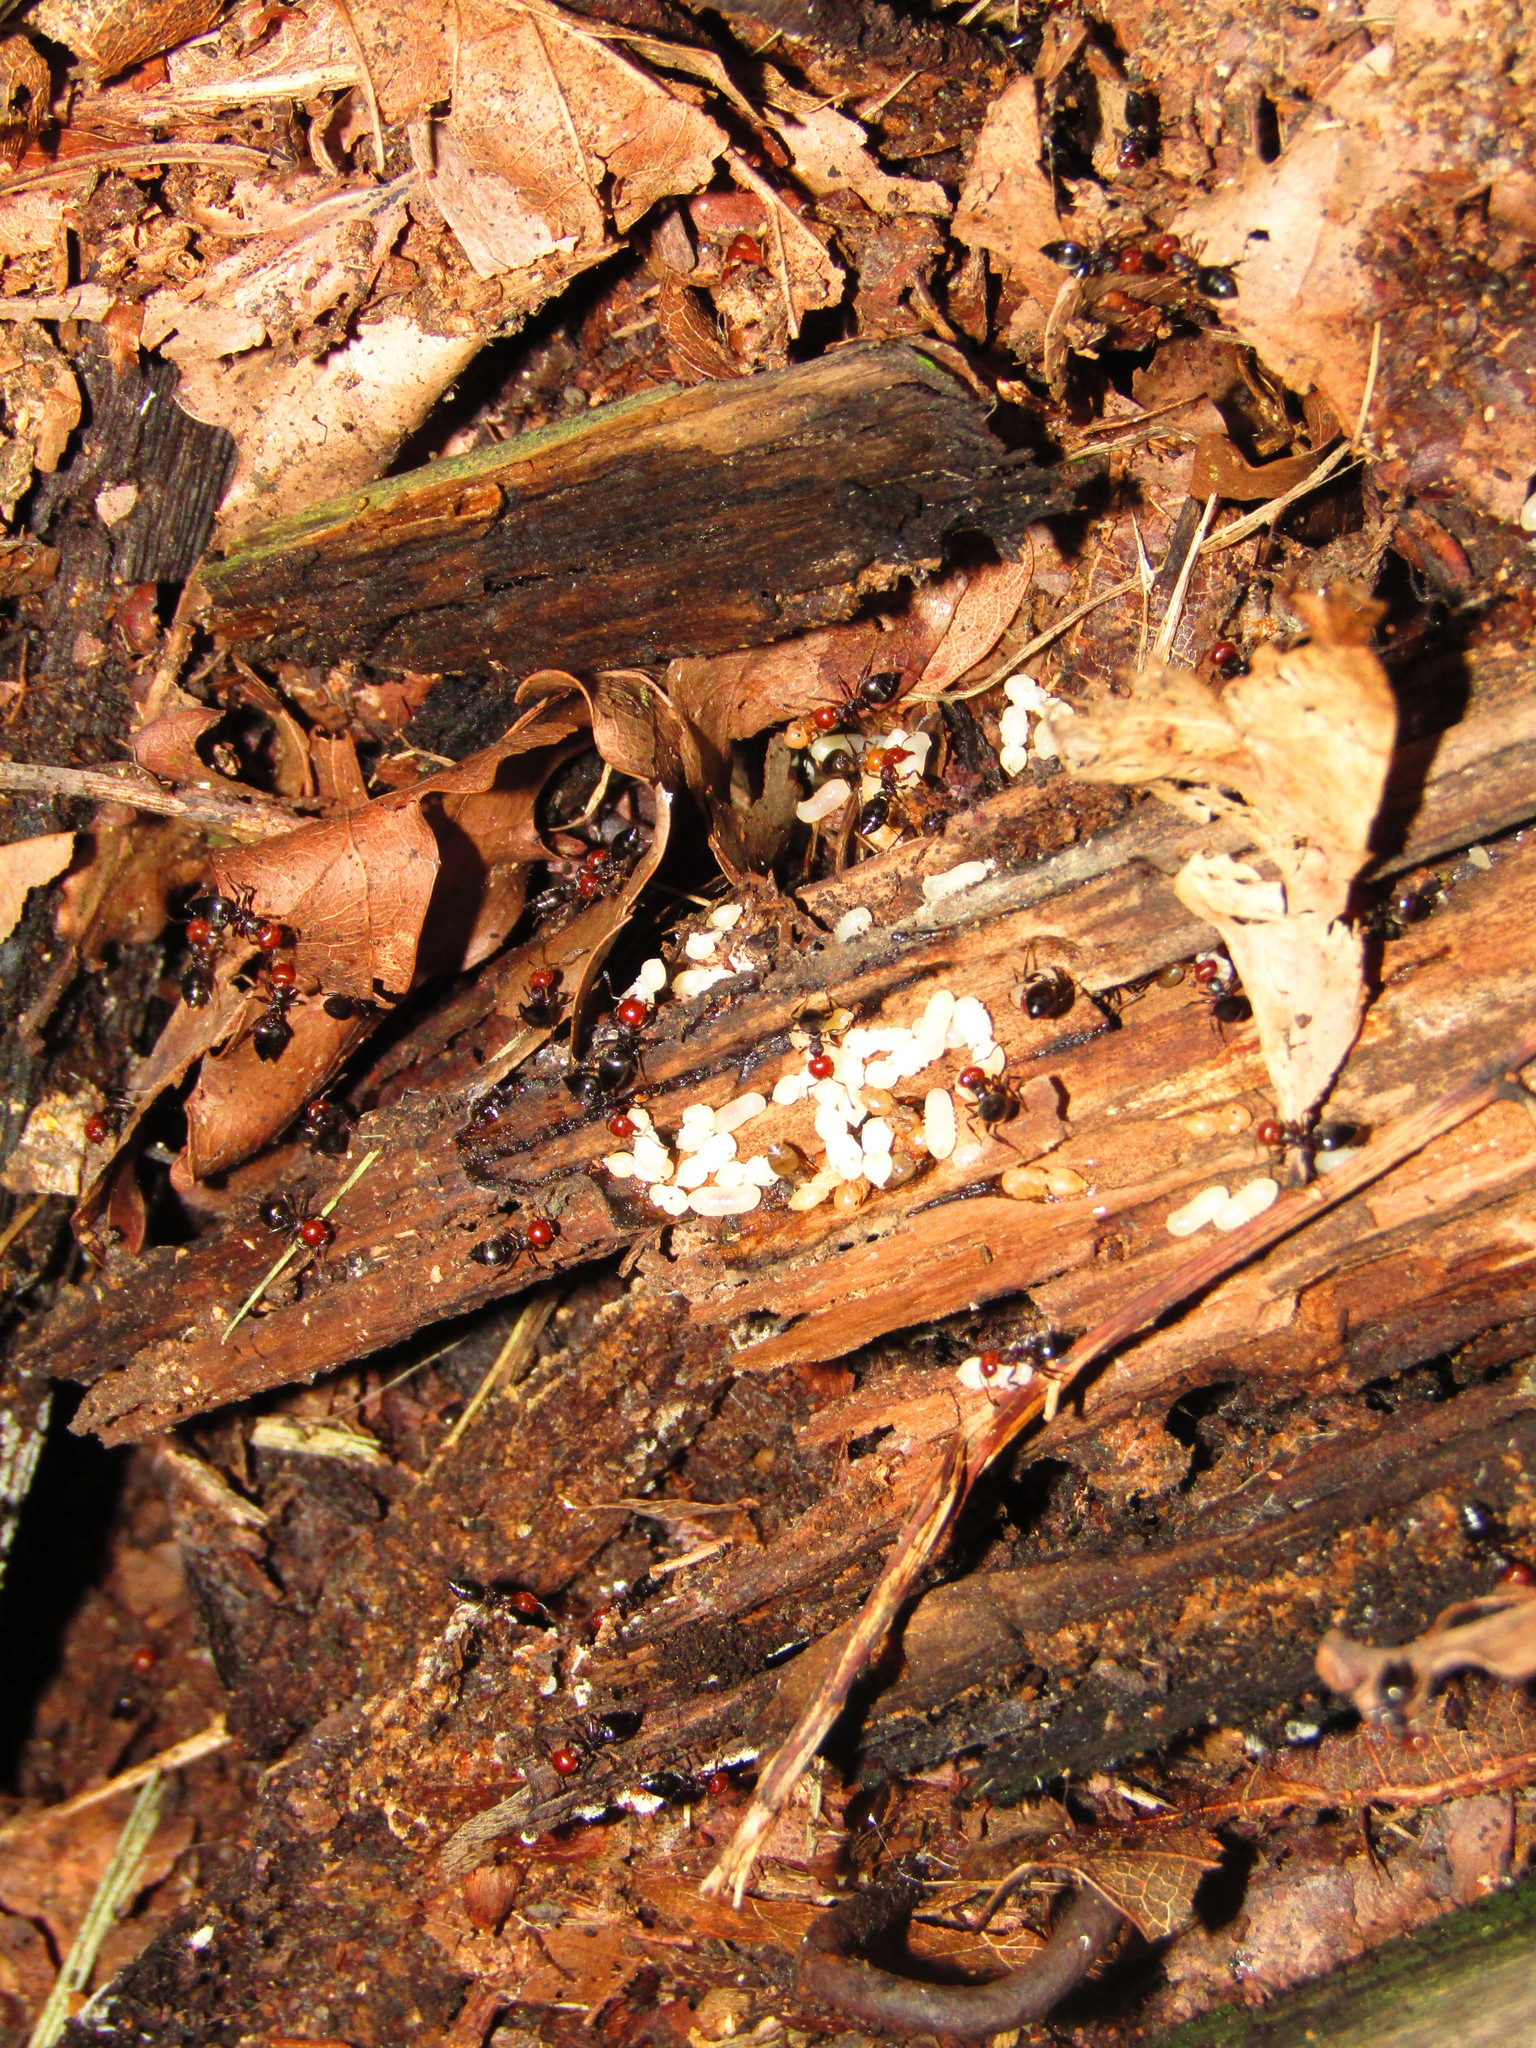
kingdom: Animalia
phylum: Arthropoda
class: Insecta
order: Hymenoptera
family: Formicidae
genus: Crematogaster
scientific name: Crematogaster scutellaris
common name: Fourmi du liège
